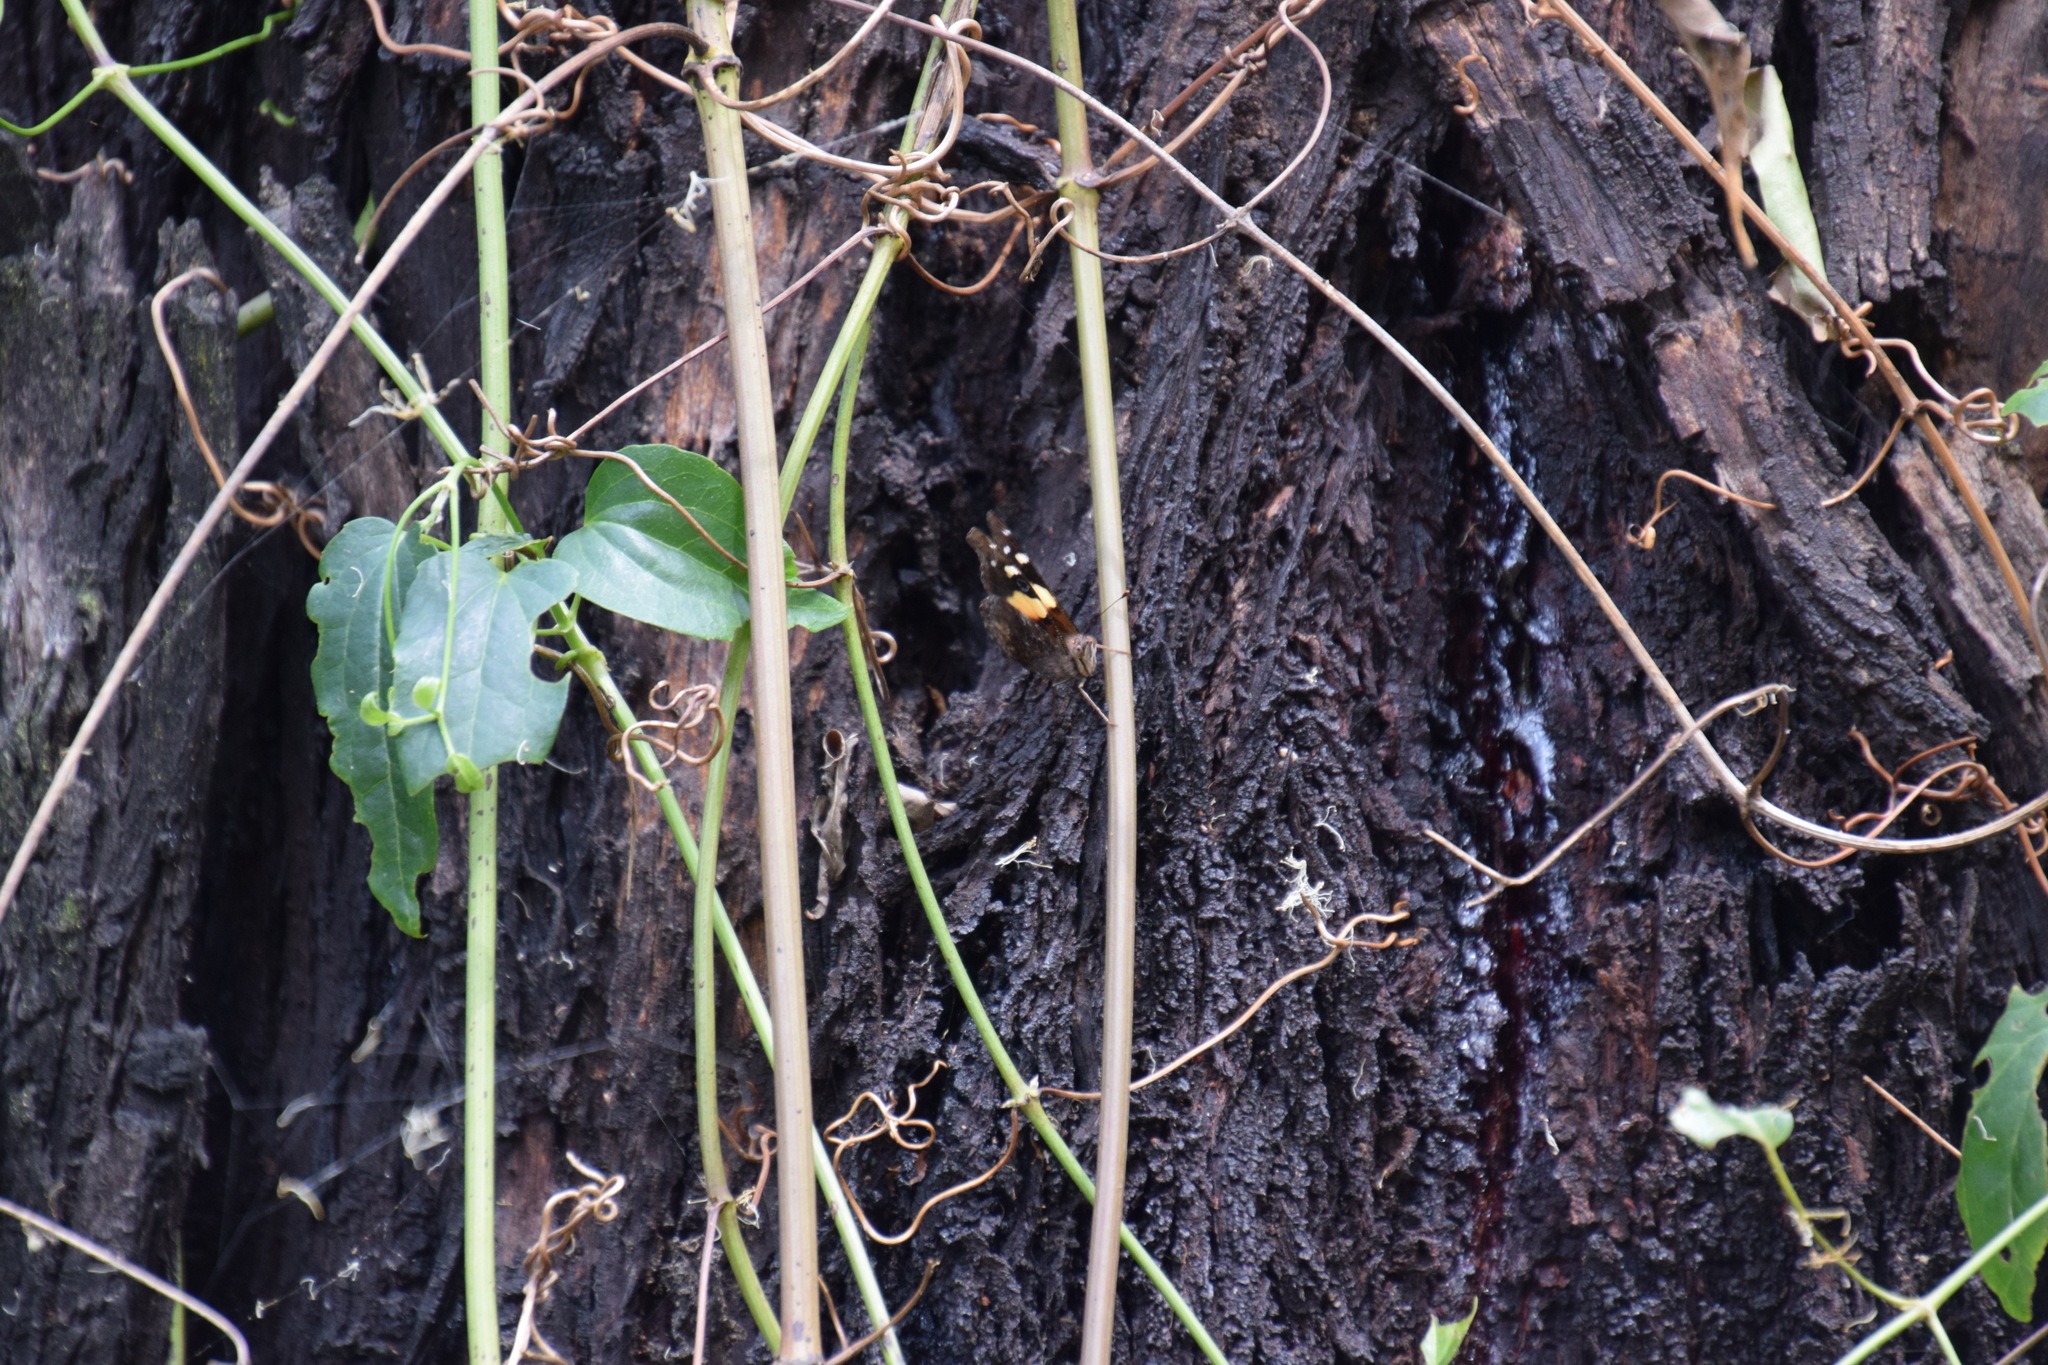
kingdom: Animalia
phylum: Arthropoda
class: Insecta
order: Lepidoptera
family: Nymphalidae
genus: Vanessa
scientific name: Vanessa itea
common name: Yellow admiral
